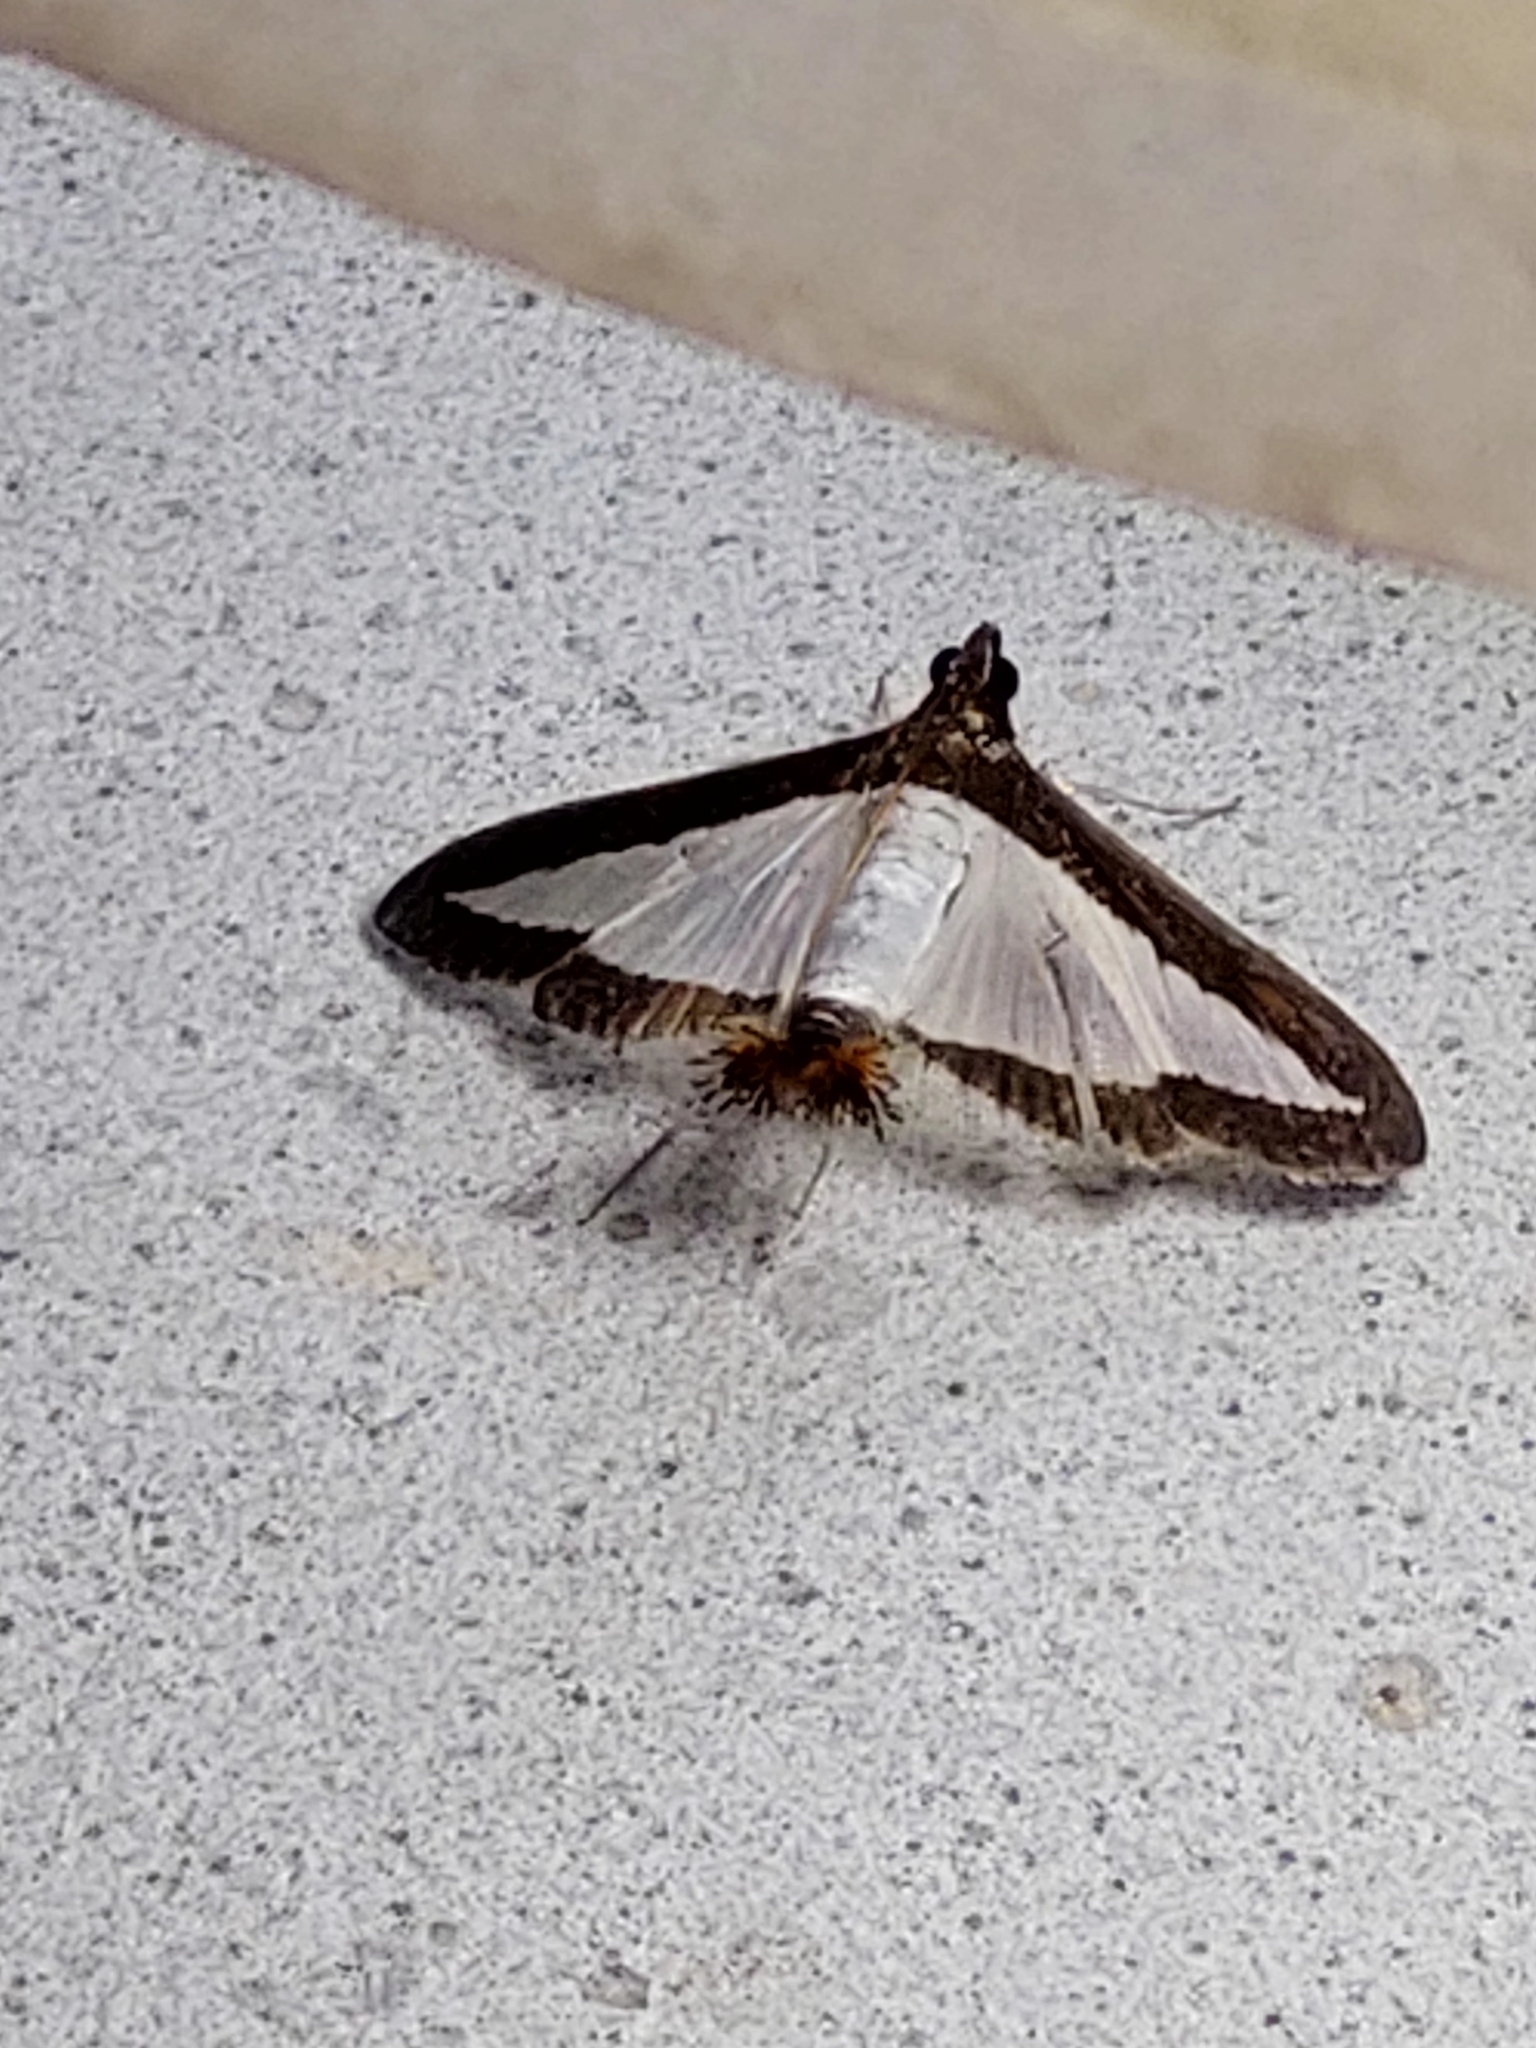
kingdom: Animalia
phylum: Arthropoda
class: Insecta
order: Lepidoptera
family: Crambidae
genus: Diaphania
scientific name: Diaphania hyalinata
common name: Melonworm
